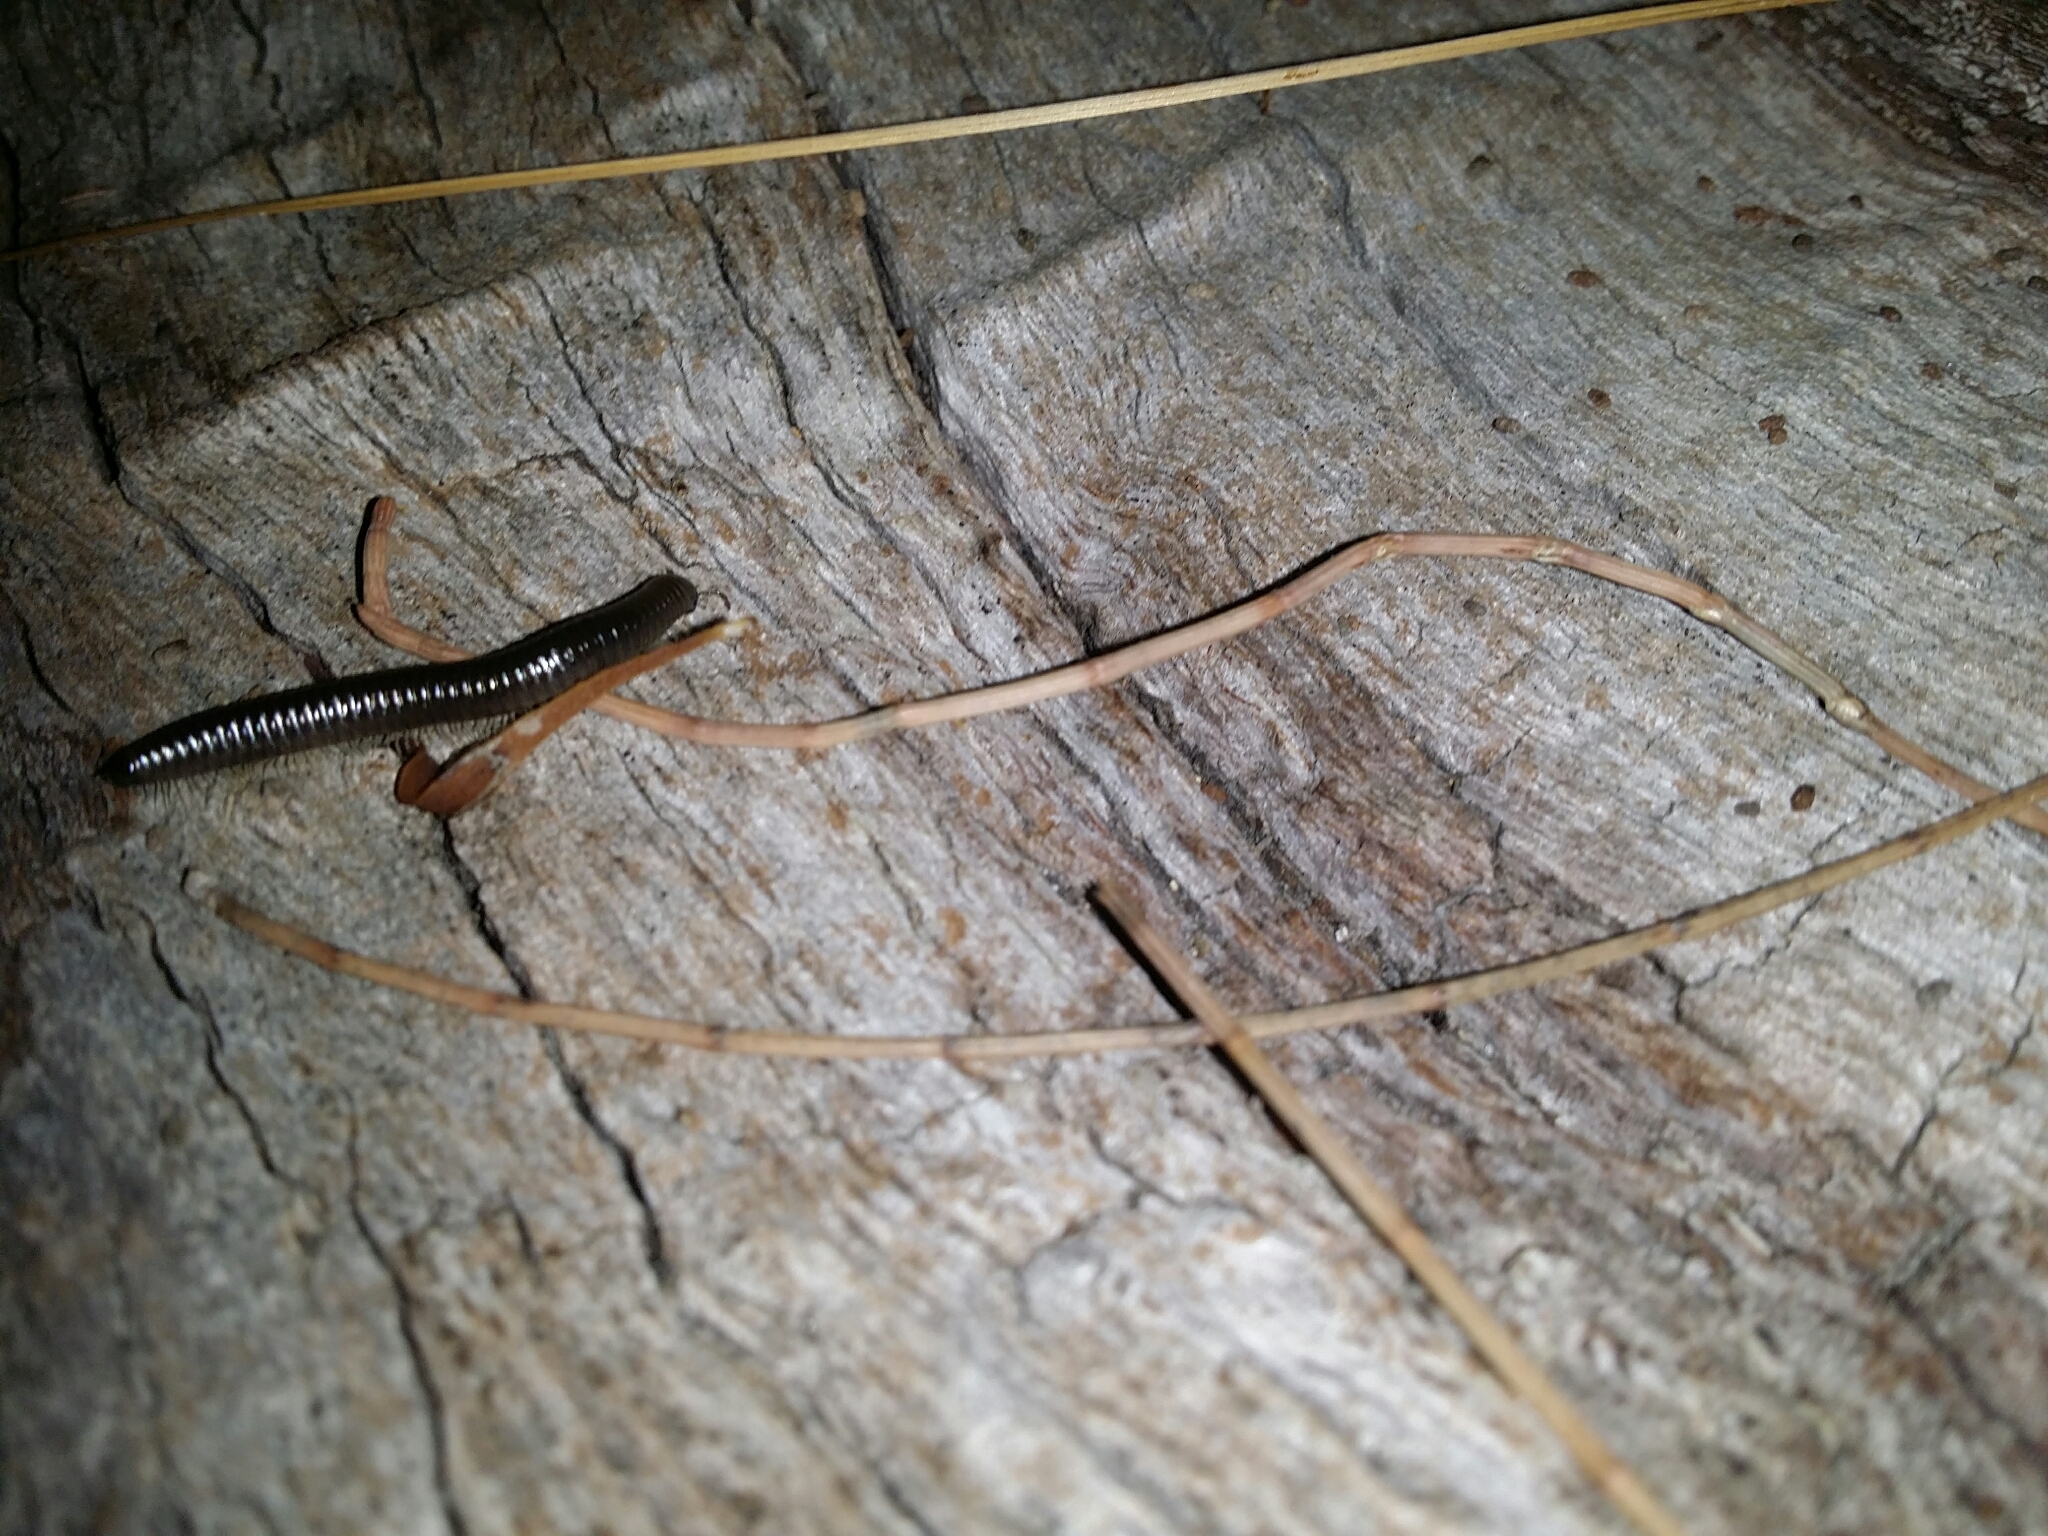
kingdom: Animalia
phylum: Arthropoda
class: Diplopoda
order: Julida
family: Julidae
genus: Ommatoiulus
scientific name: Ommatoiulus moreleti
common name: Portuguese millipede
